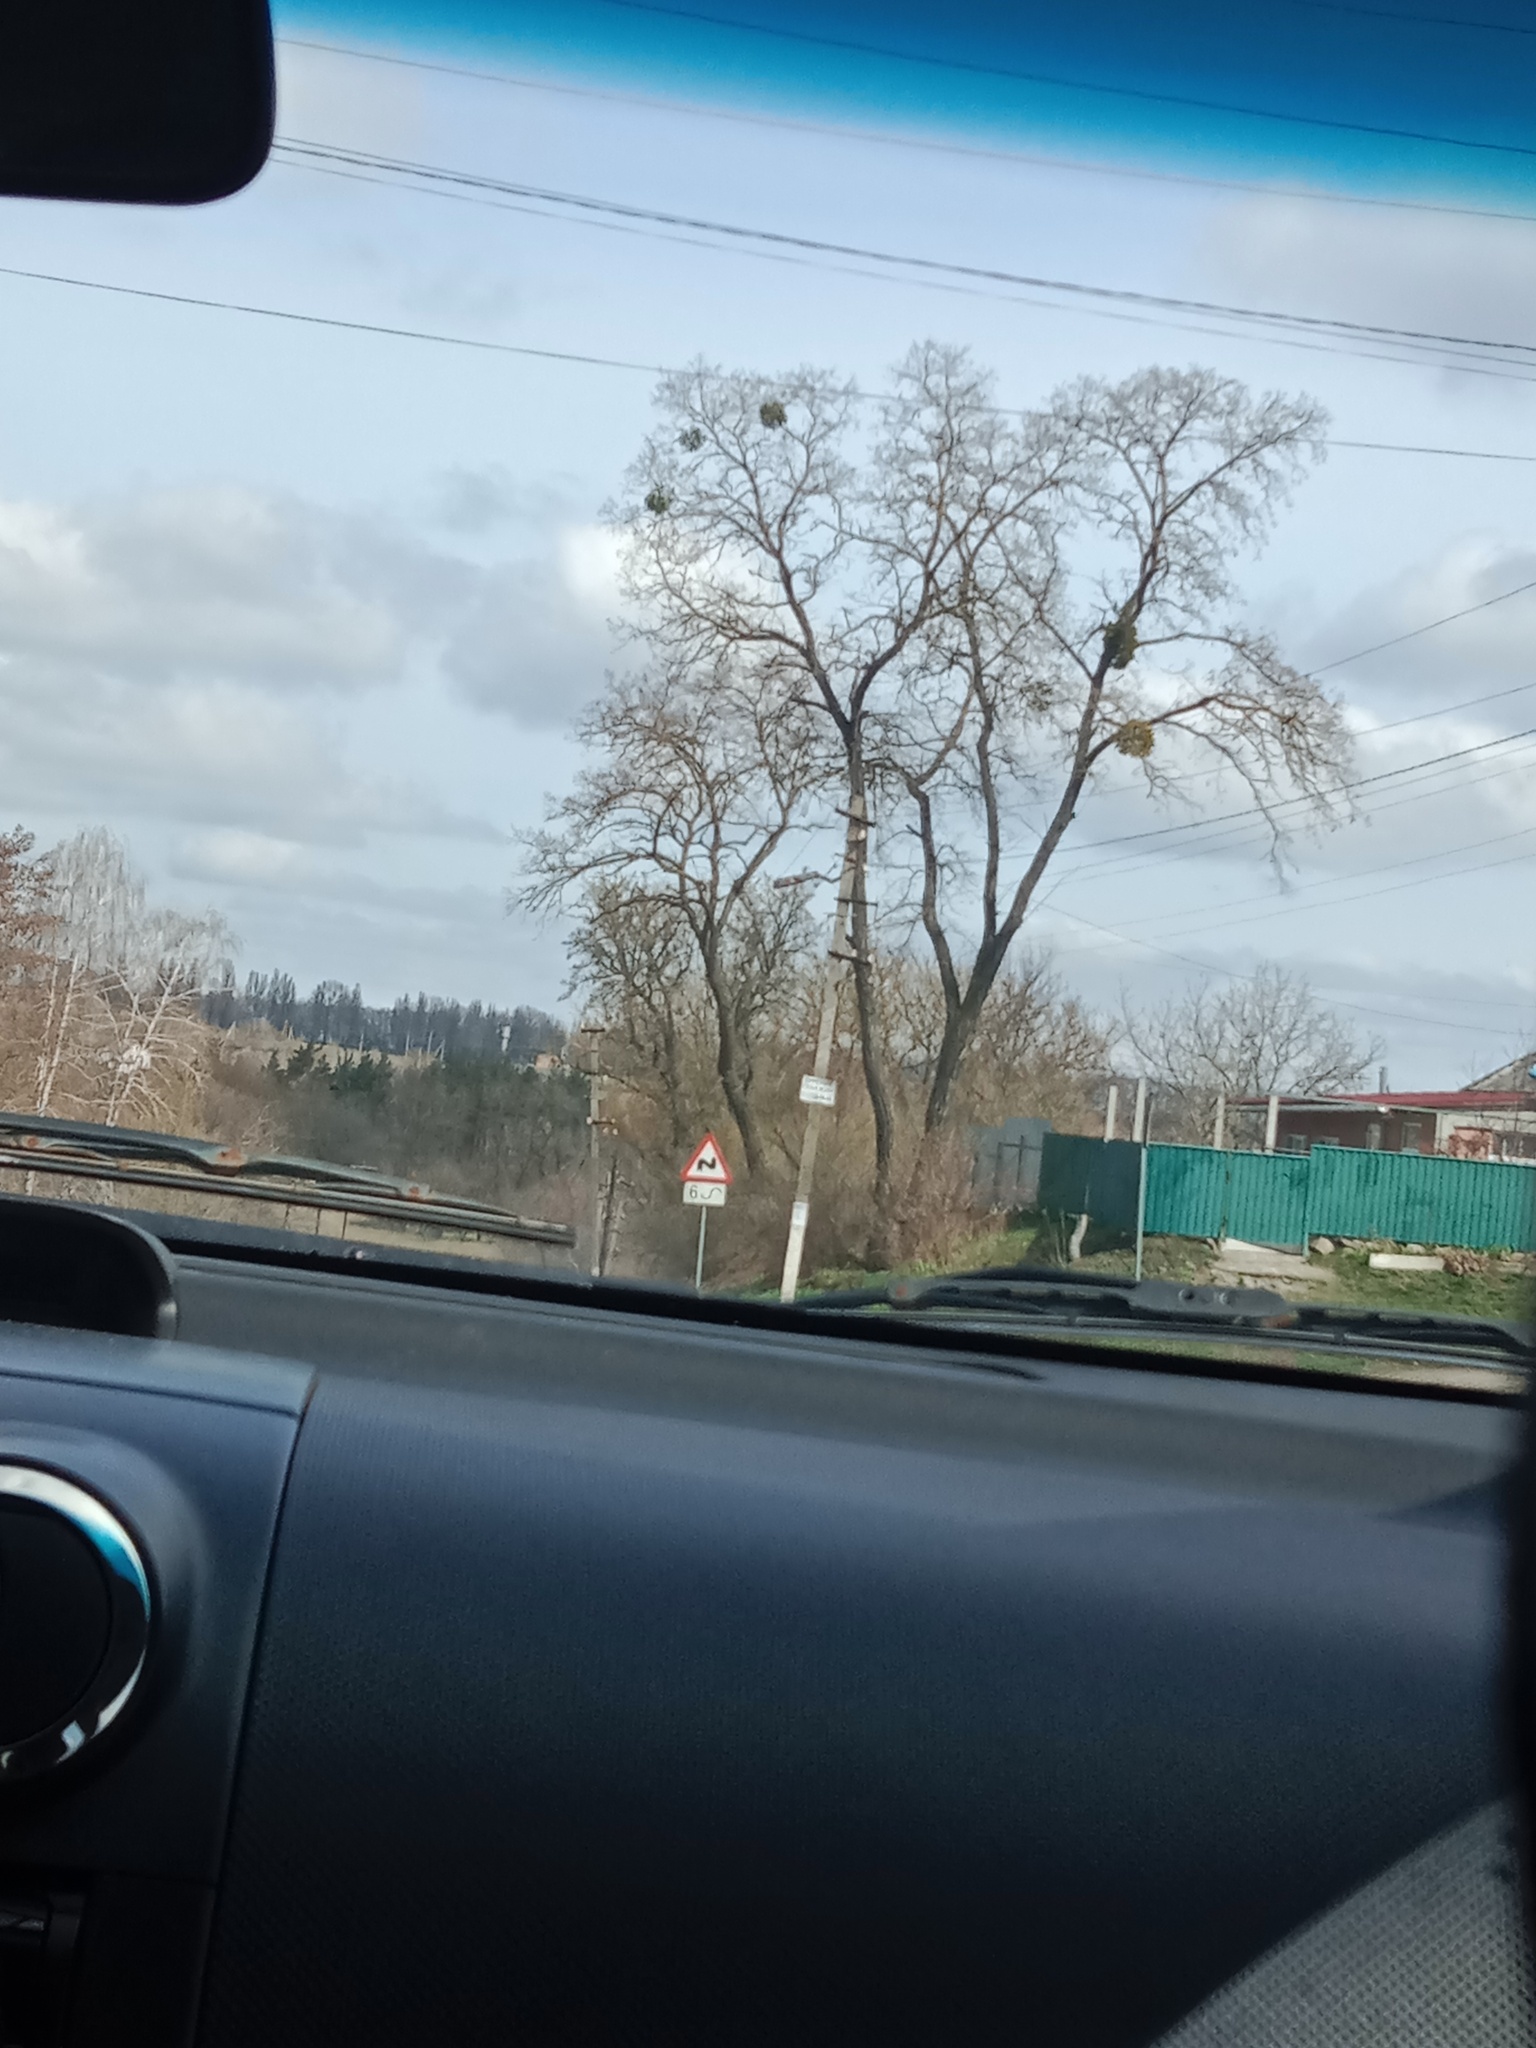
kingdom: Plantae
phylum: Tracheophyta
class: Magnoliopsida
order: Santalales
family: Viscaceae
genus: Viscum
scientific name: Viscum album
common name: Mistletoe
